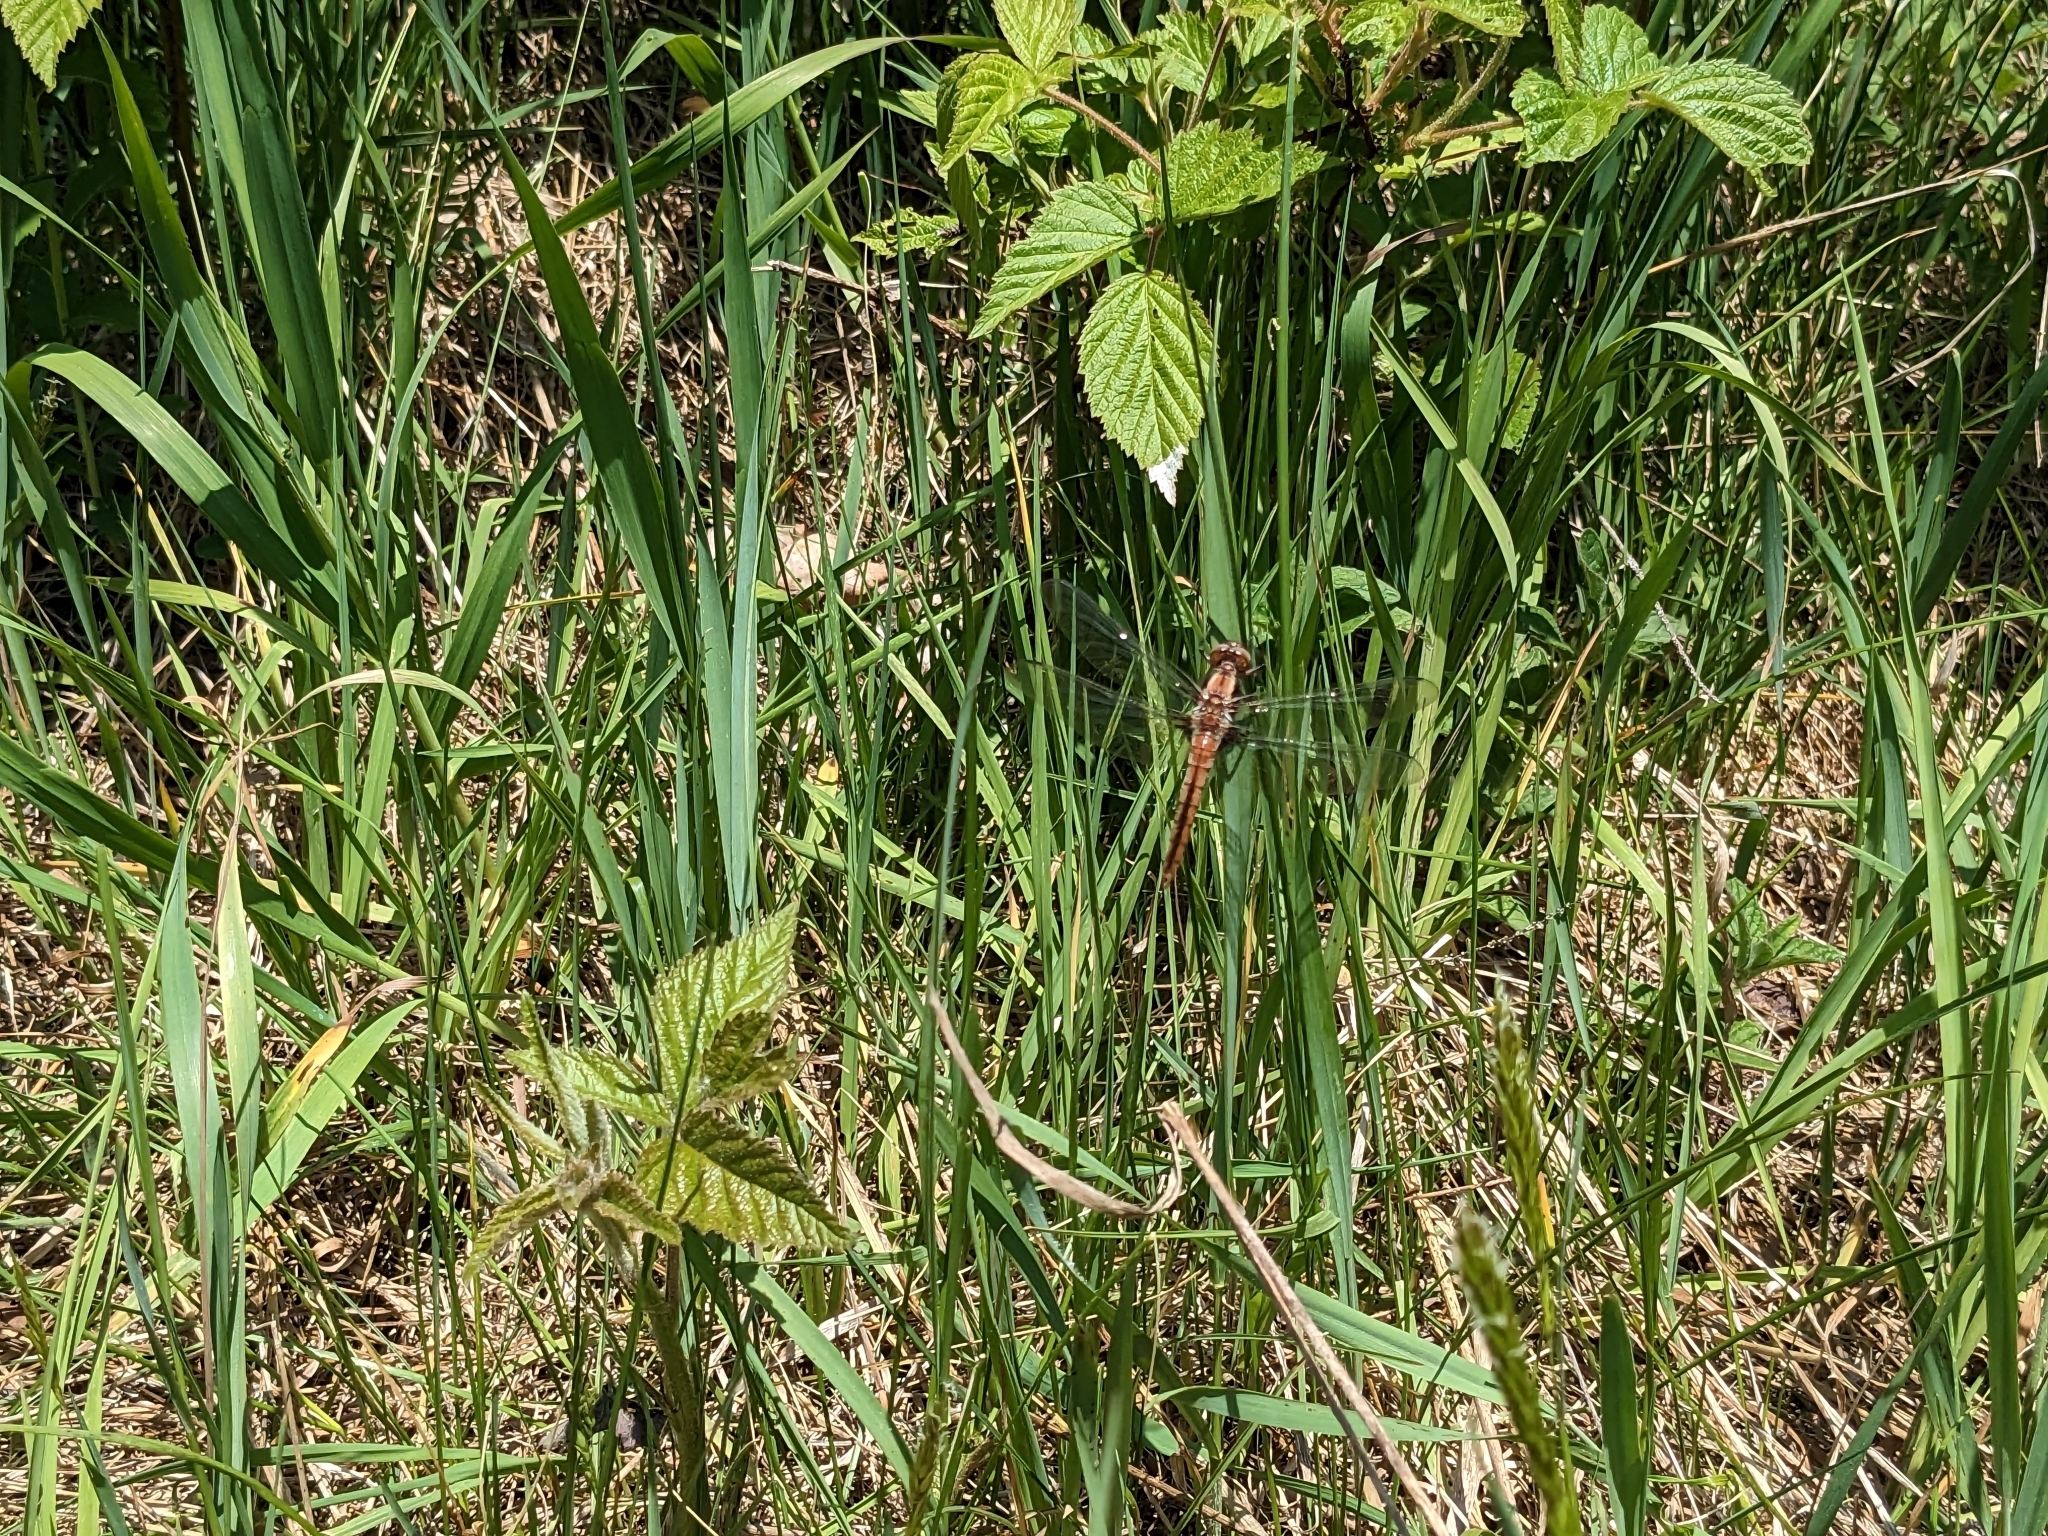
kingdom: Animalia
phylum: Arthropoda
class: Insecta
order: Odonata
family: Libellulidae
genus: Ladona
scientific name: Ladona julia
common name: Chalk-fronted corporal
